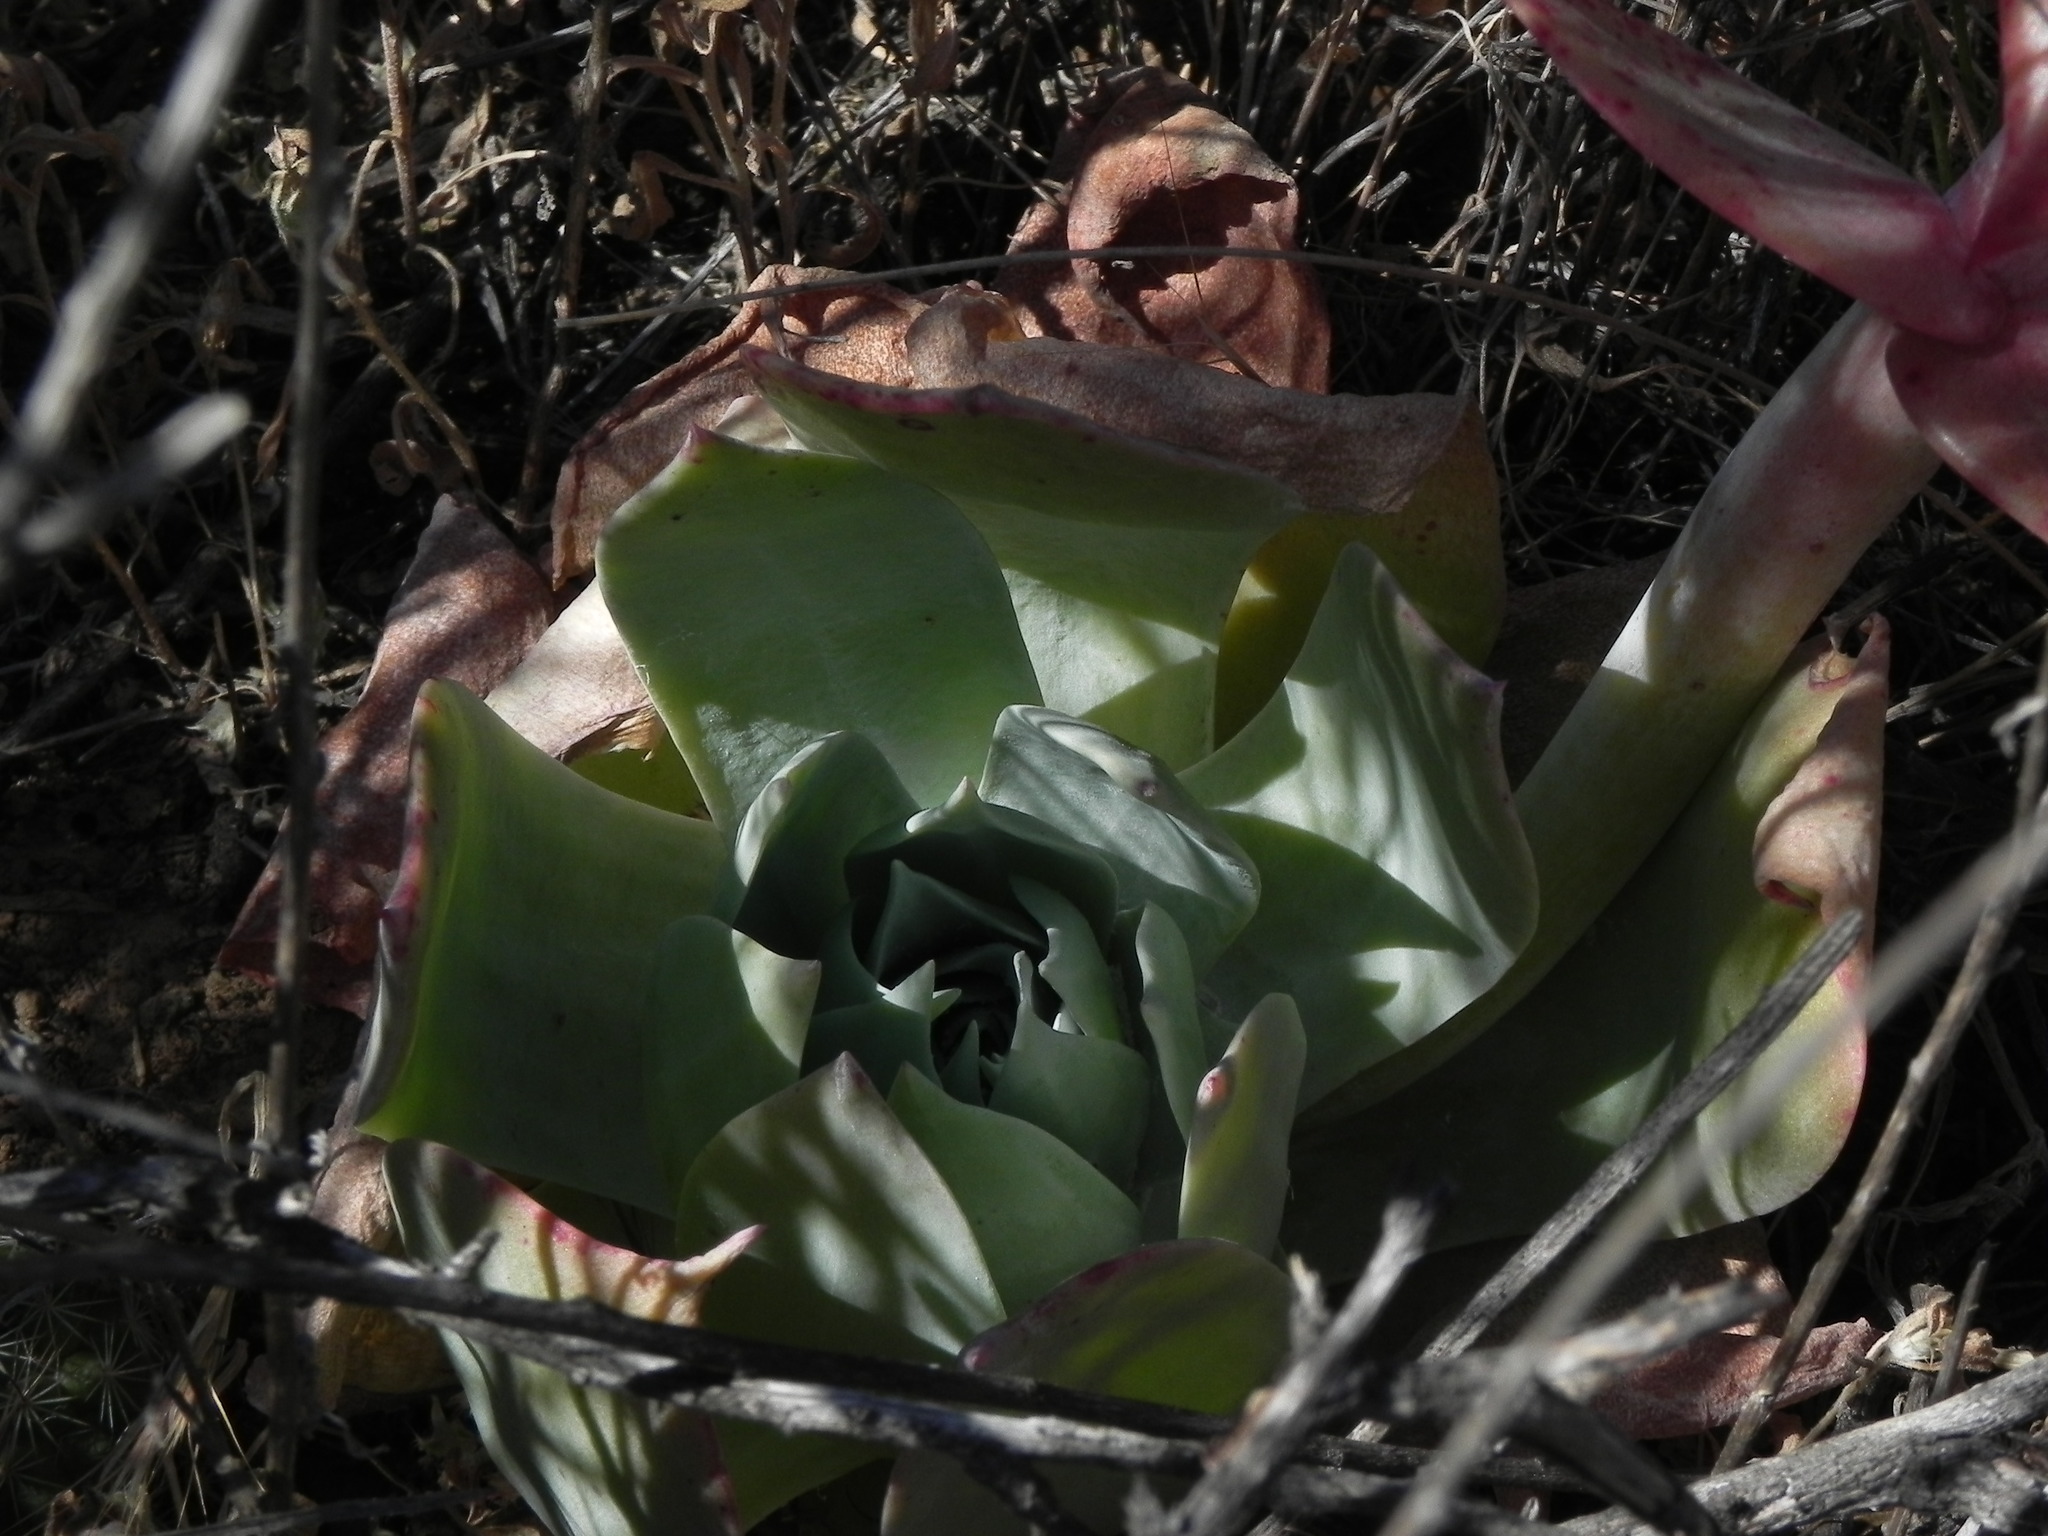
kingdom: Plantae
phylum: Tracheophyta
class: Magnoliopsida
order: Saxifragales
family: Crassulaceae
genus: Dudleya
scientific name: Dudleya pulverulenta
